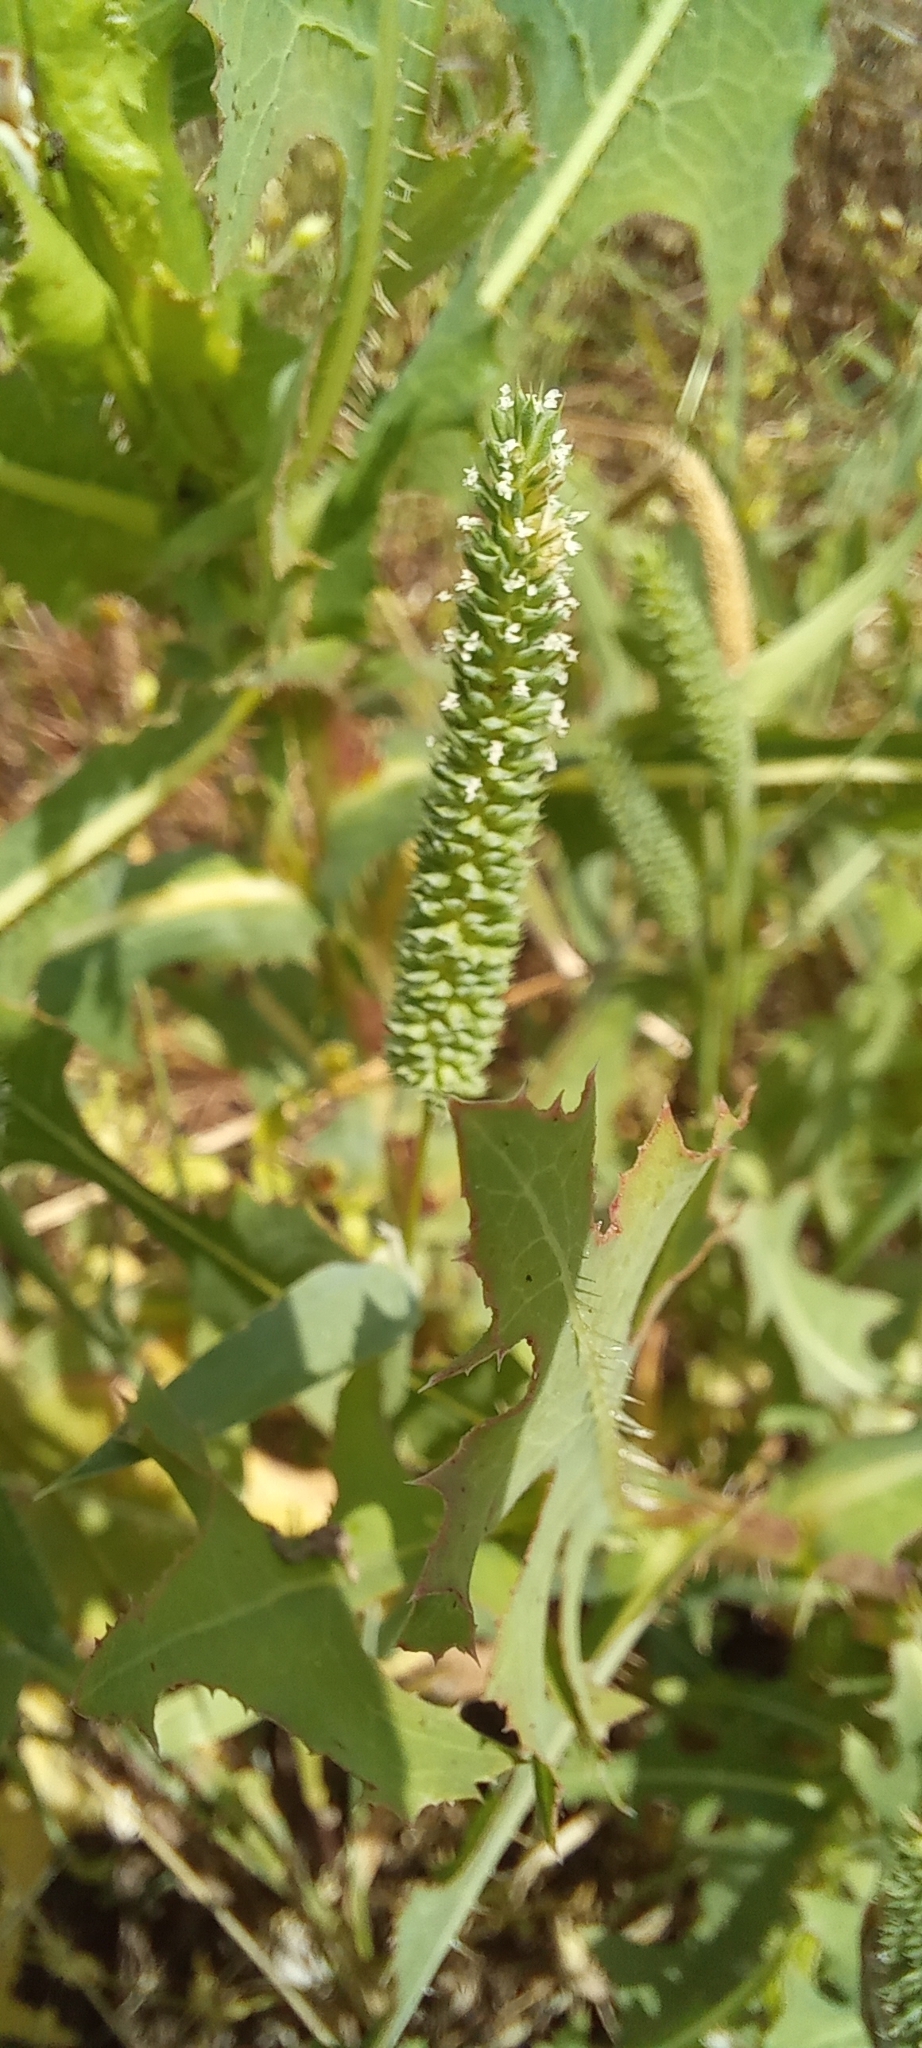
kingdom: Plantae
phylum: Tracheophyta
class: Liliopsida
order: Poales
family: Poaceae
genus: Phleum
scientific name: Phleum paniculatum
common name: British timothy
